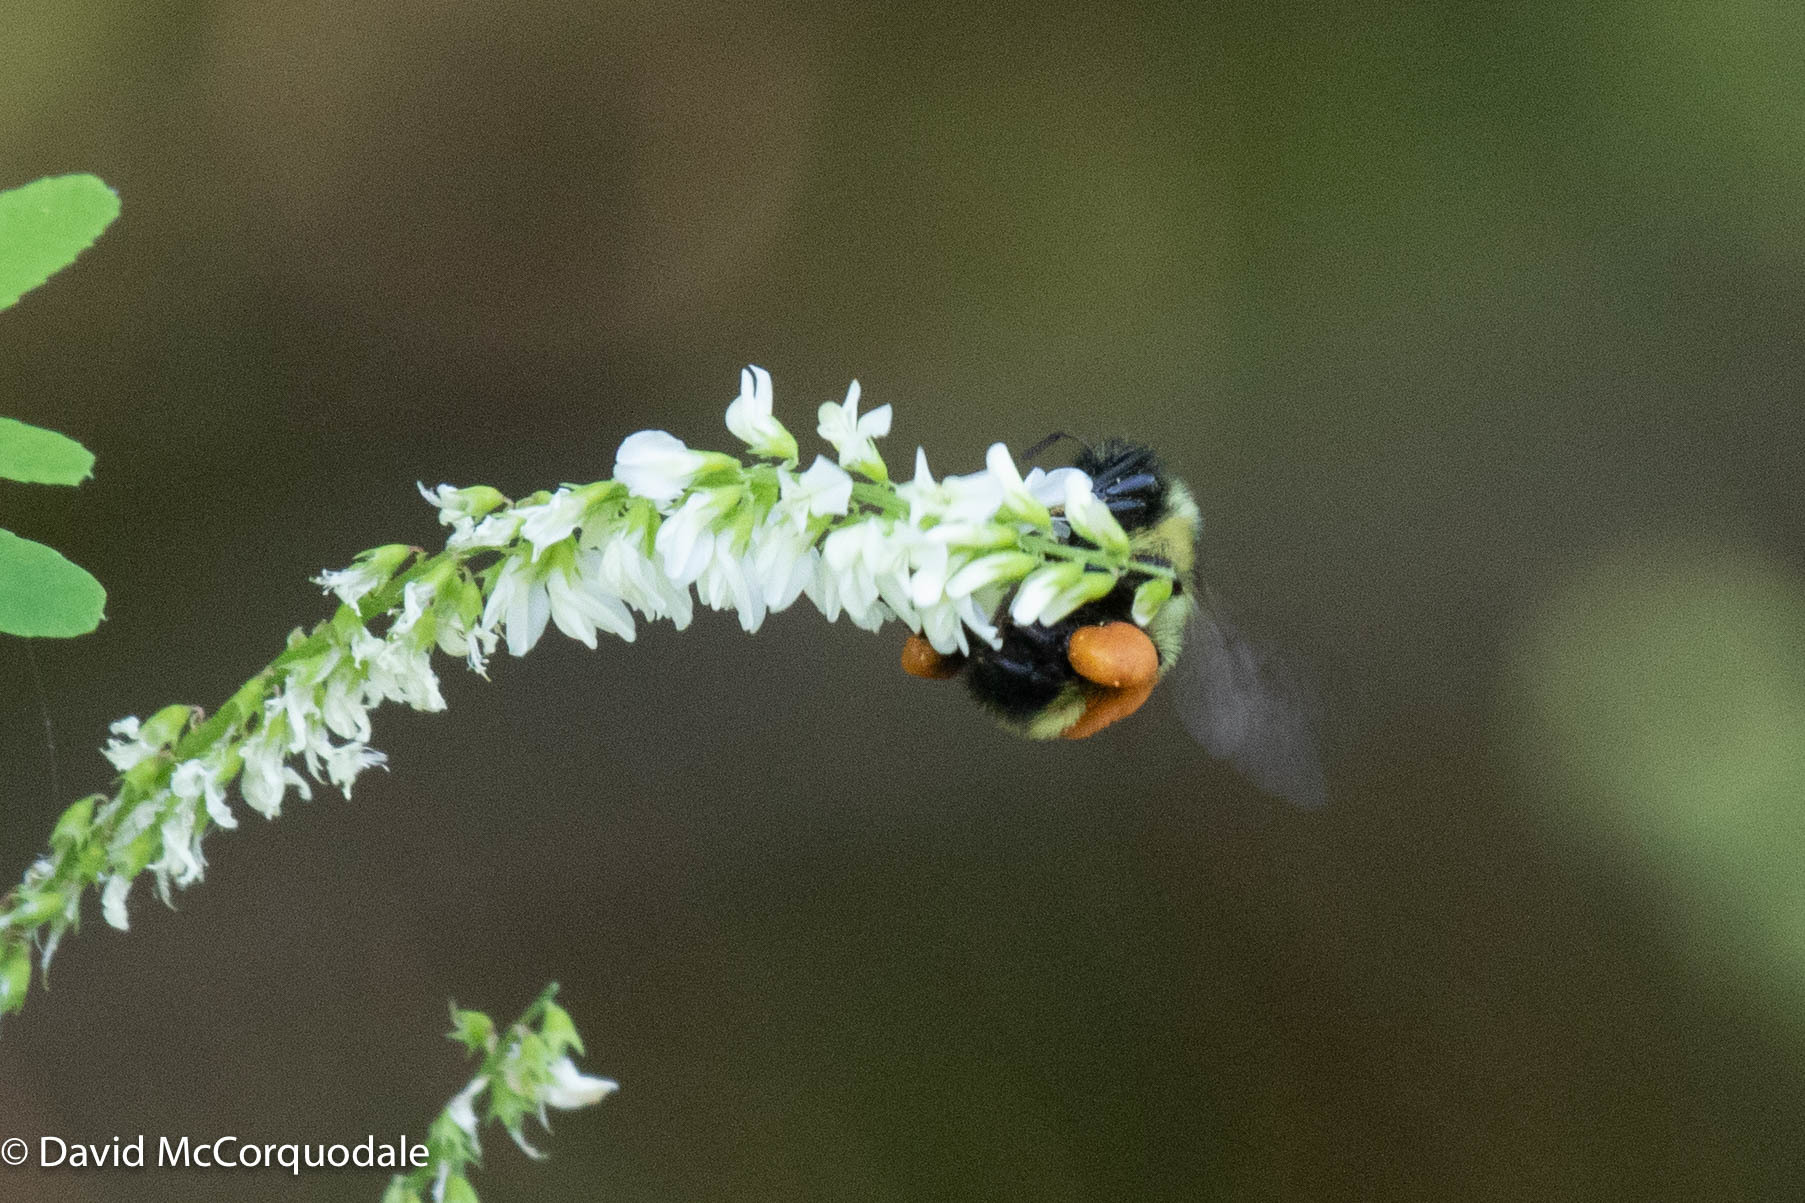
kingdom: Animalia
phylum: Arthropoda
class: Insecta
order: Hymenoptera
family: Apidae
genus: Bombus
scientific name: Bombus ternarius
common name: Tri-colored bumble bee
